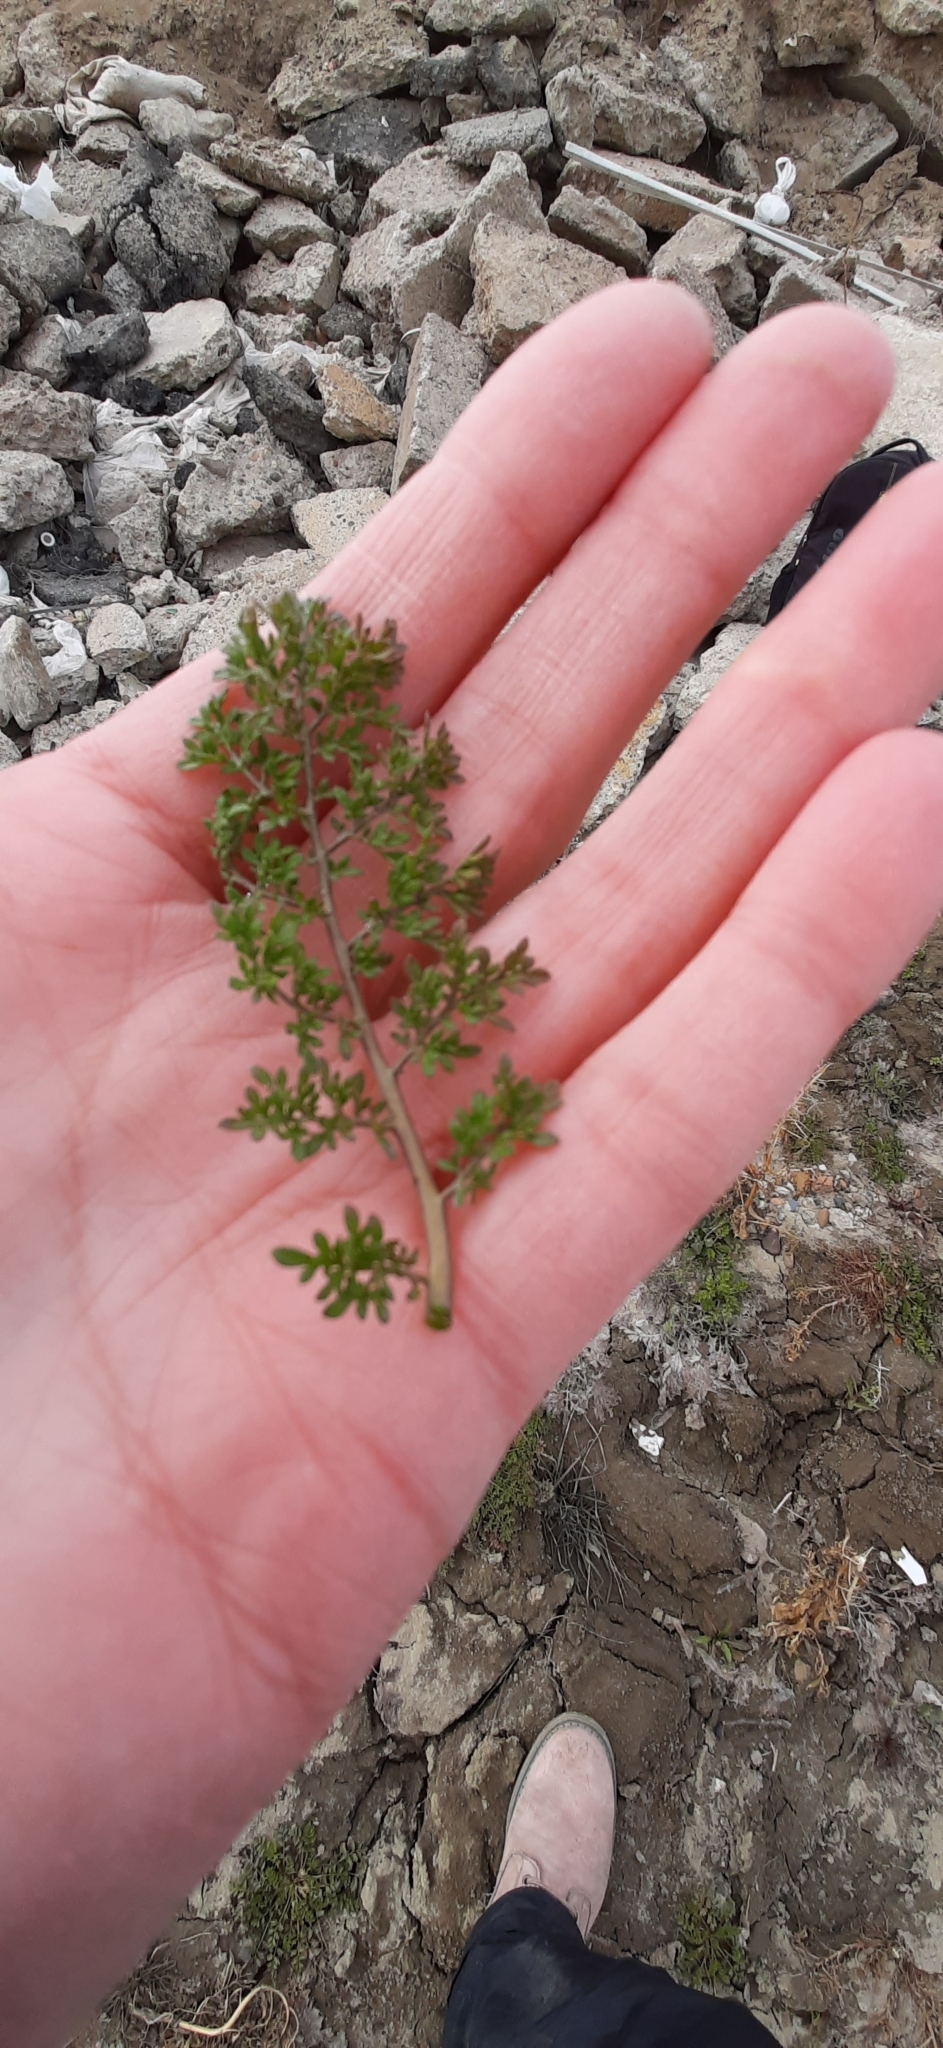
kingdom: Plantae
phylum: Tracheophyta
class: Magnoliopsida
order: Brassicales
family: Brassicaceae
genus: Descurainia
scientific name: Descurainia sophia
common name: Flixweed
